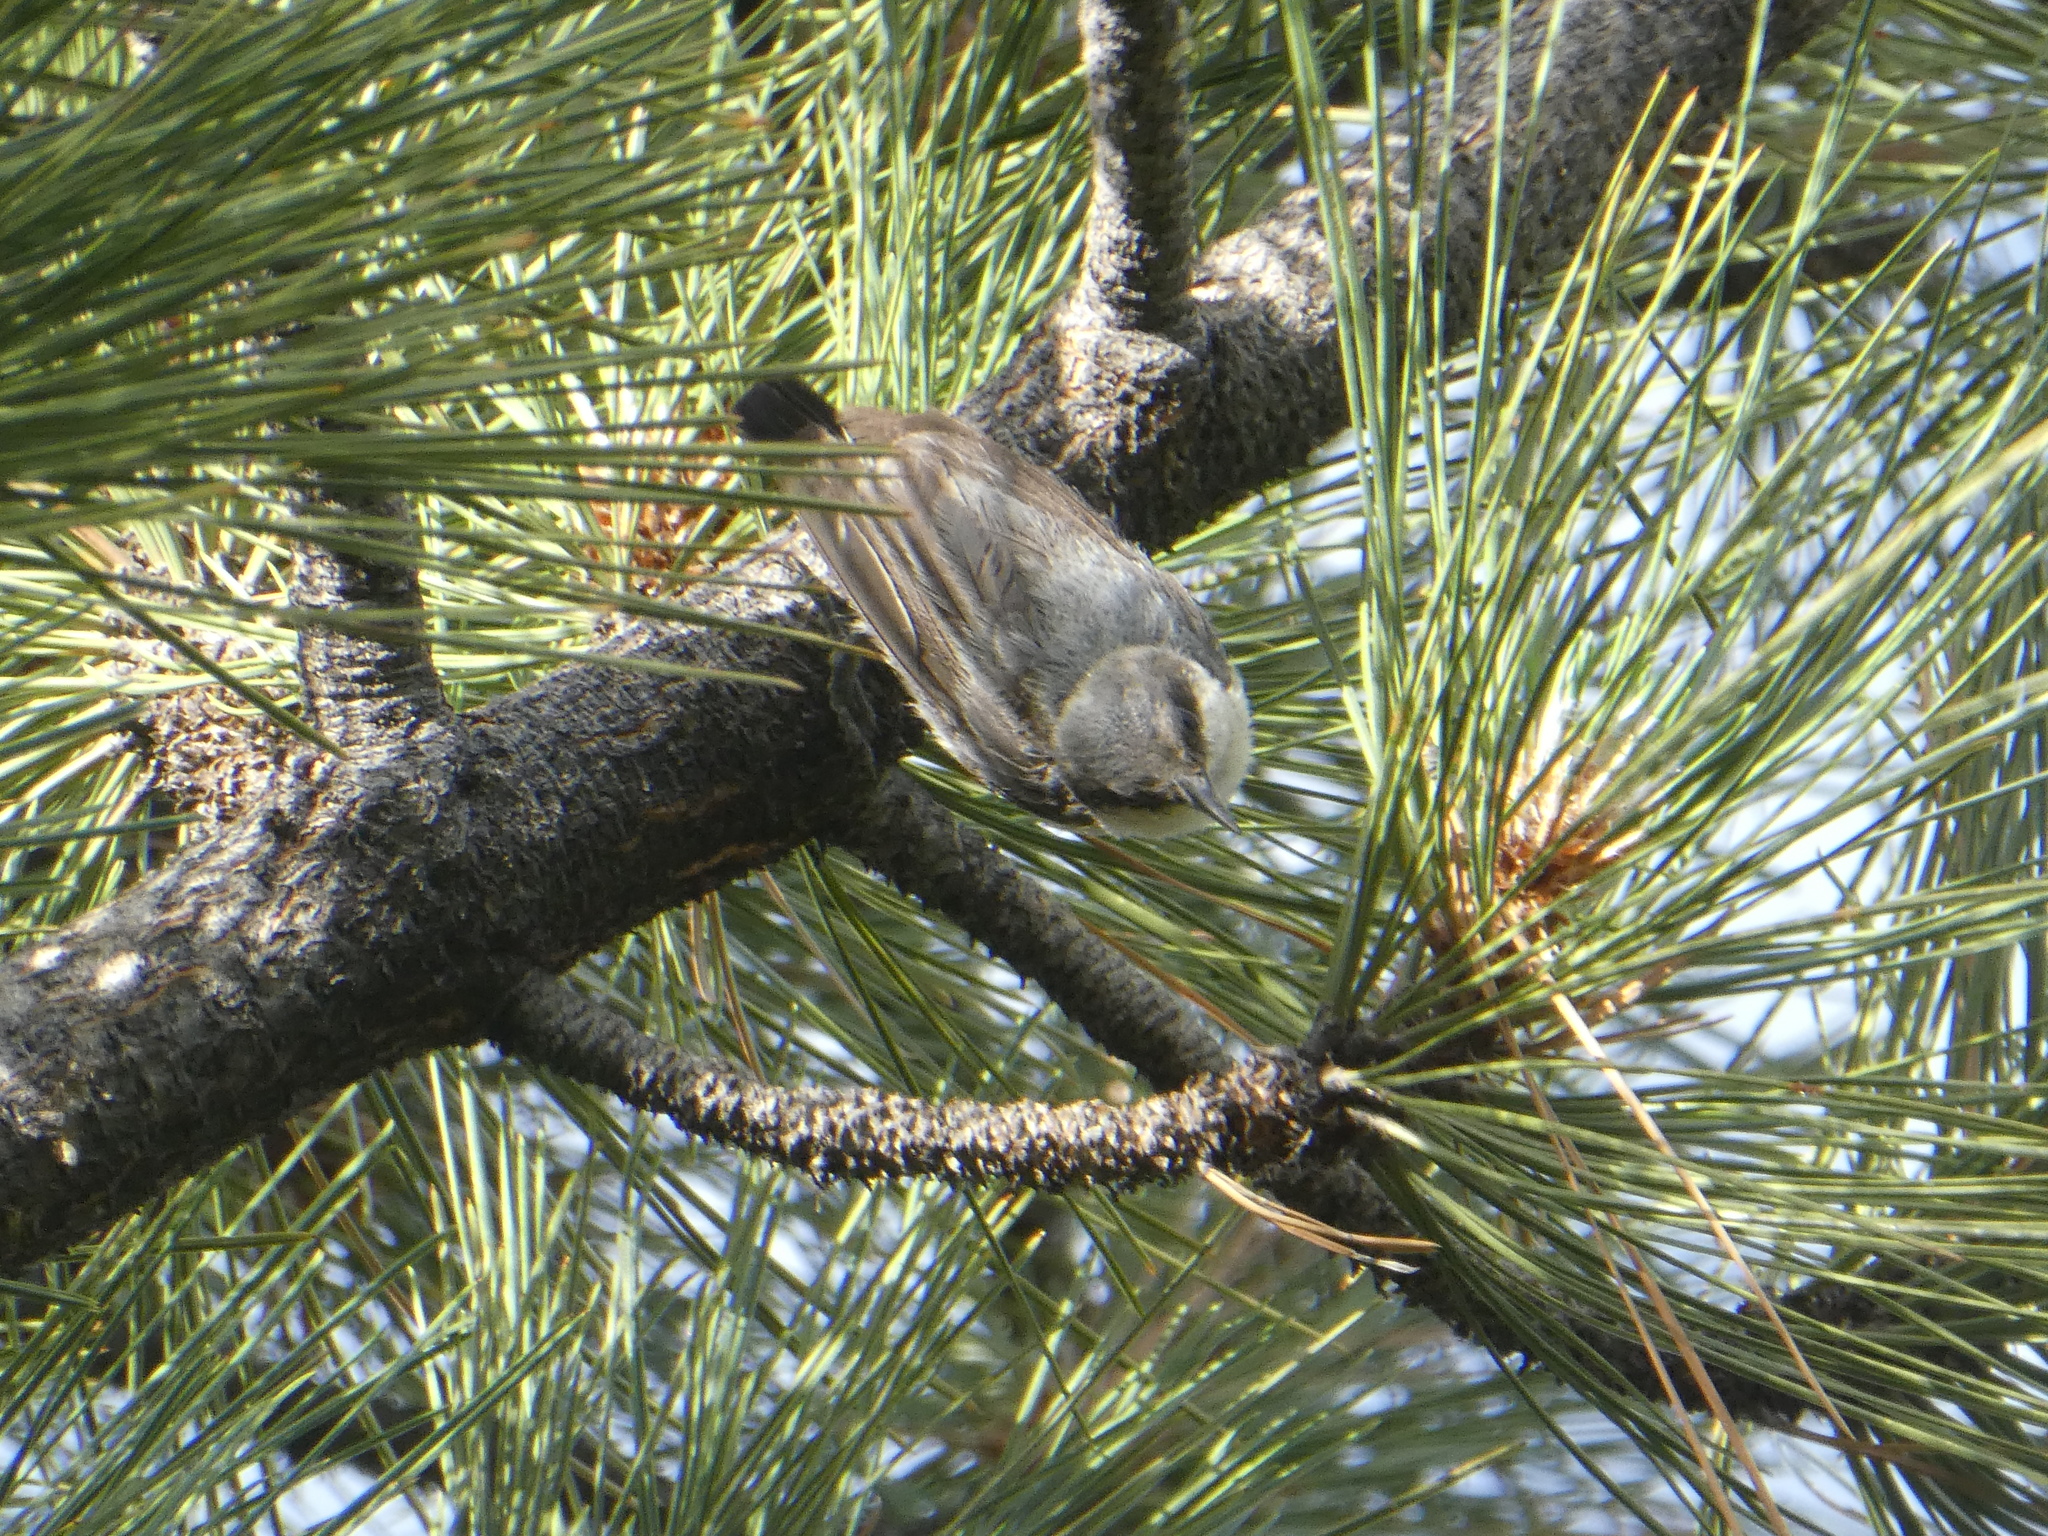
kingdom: Animalia
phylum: Chordata
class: Aves
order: Passeriformes
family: Sittidae
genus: Sitta
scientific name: Sitta pygmaea
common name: Pygmy nuthatch
